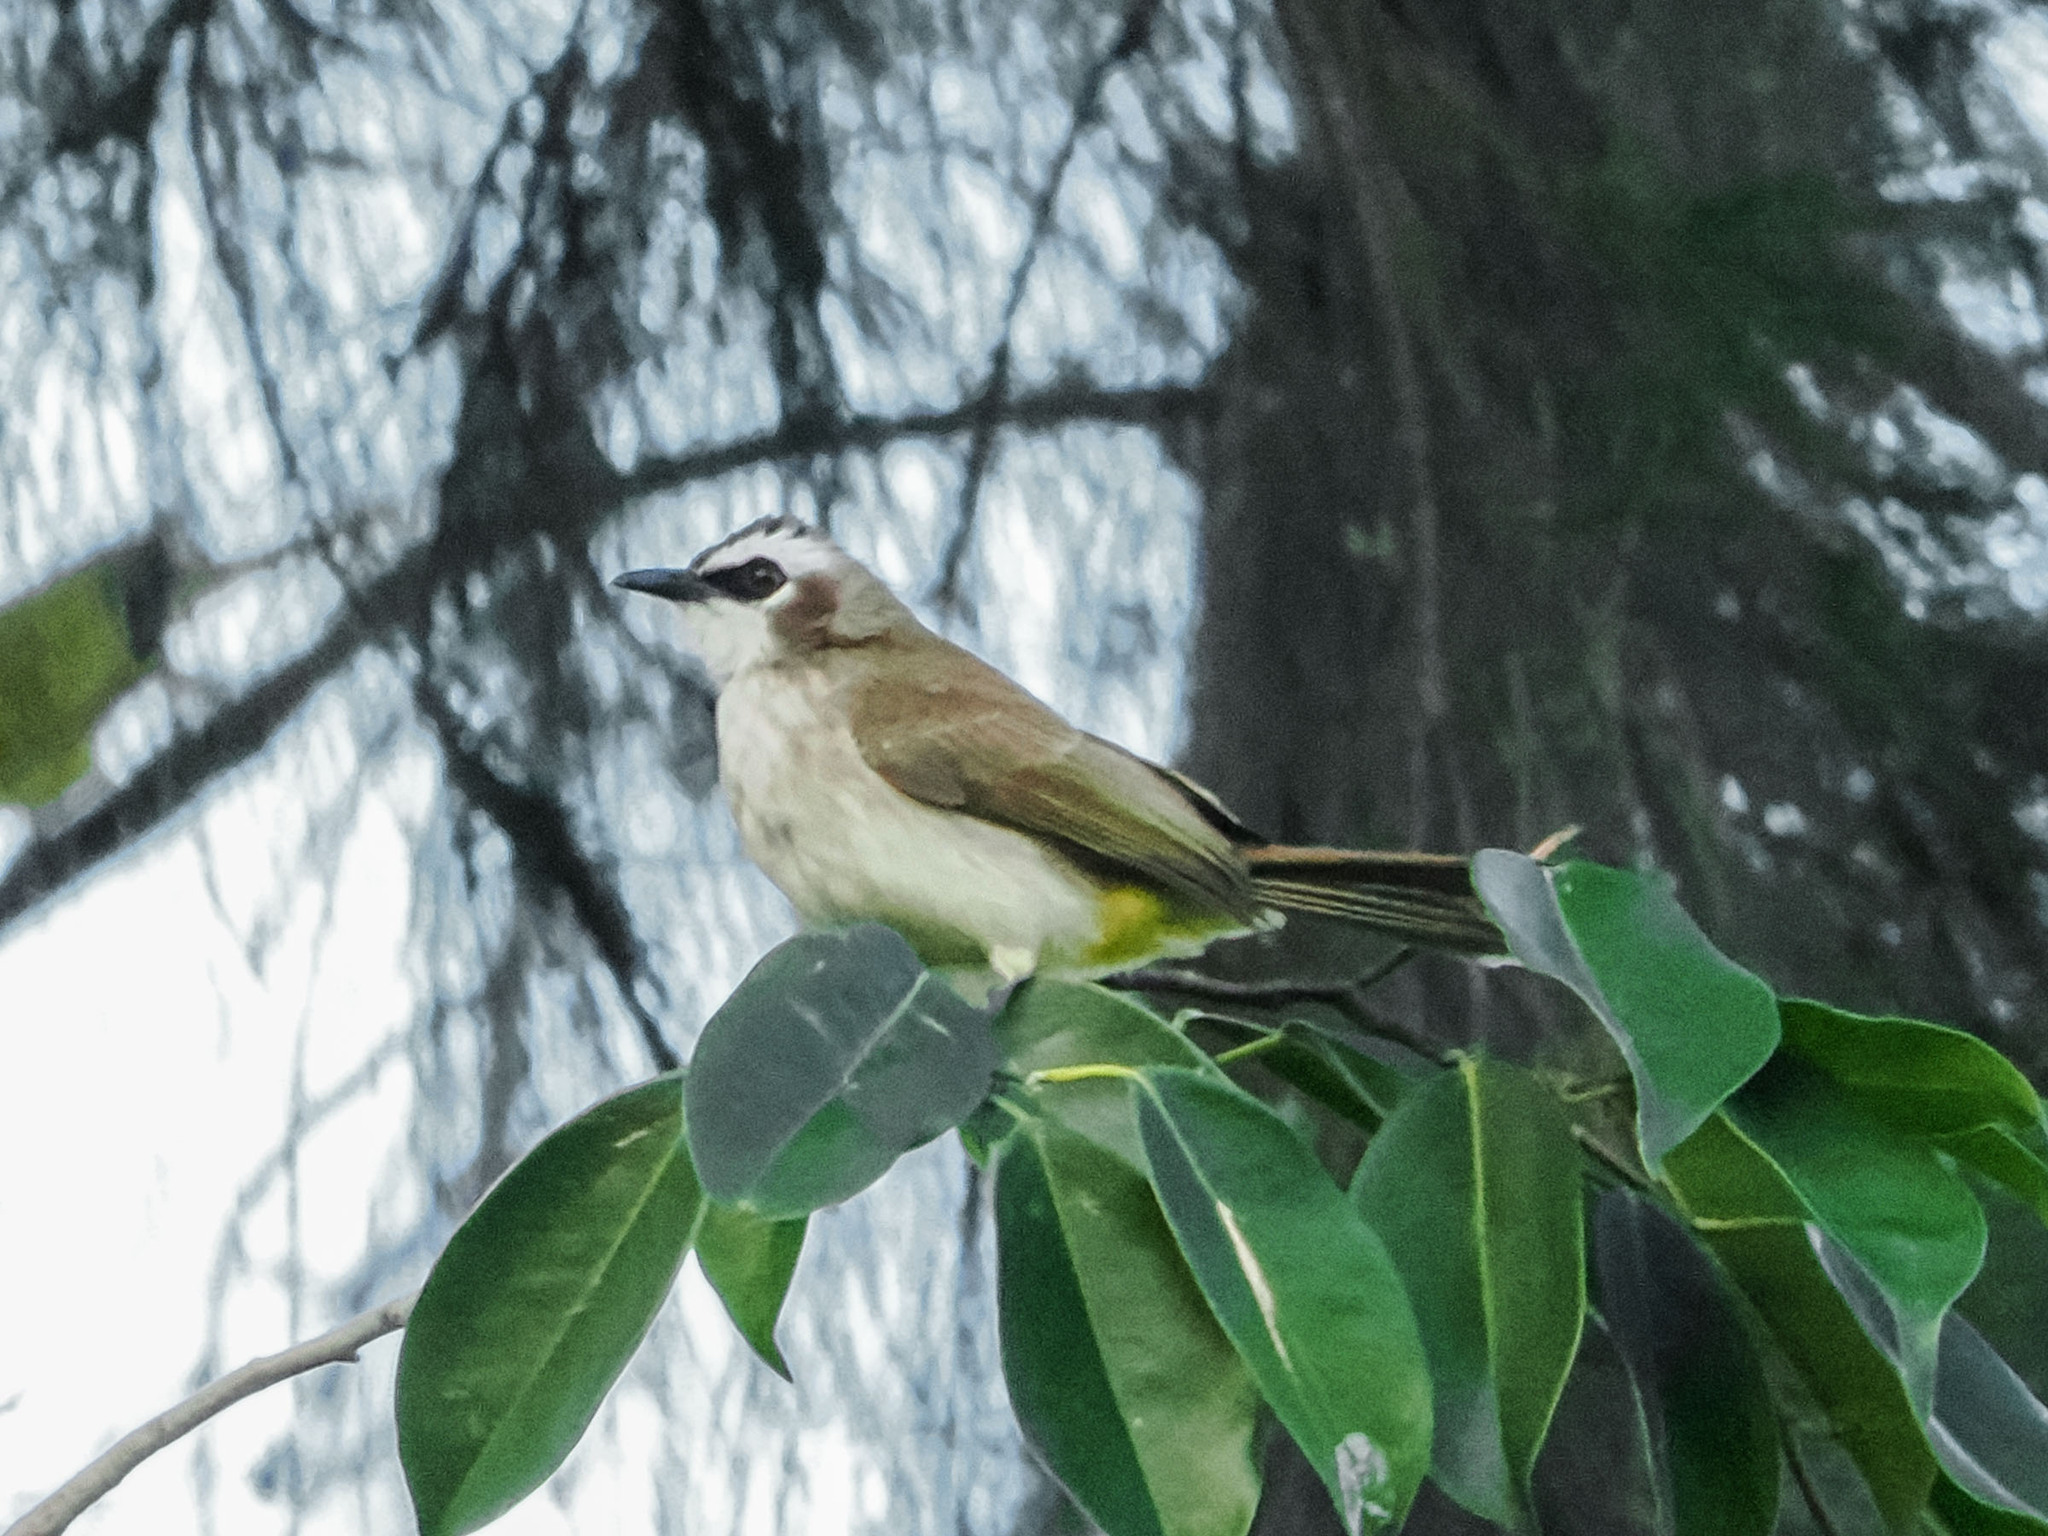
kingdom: Animalia
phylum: Chordata
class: Aves
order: Passeriformes
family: Pycnonotidae
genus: Pycnonotus
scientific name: Pycnonotus goiavier
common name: Yellow-vented bulbul
